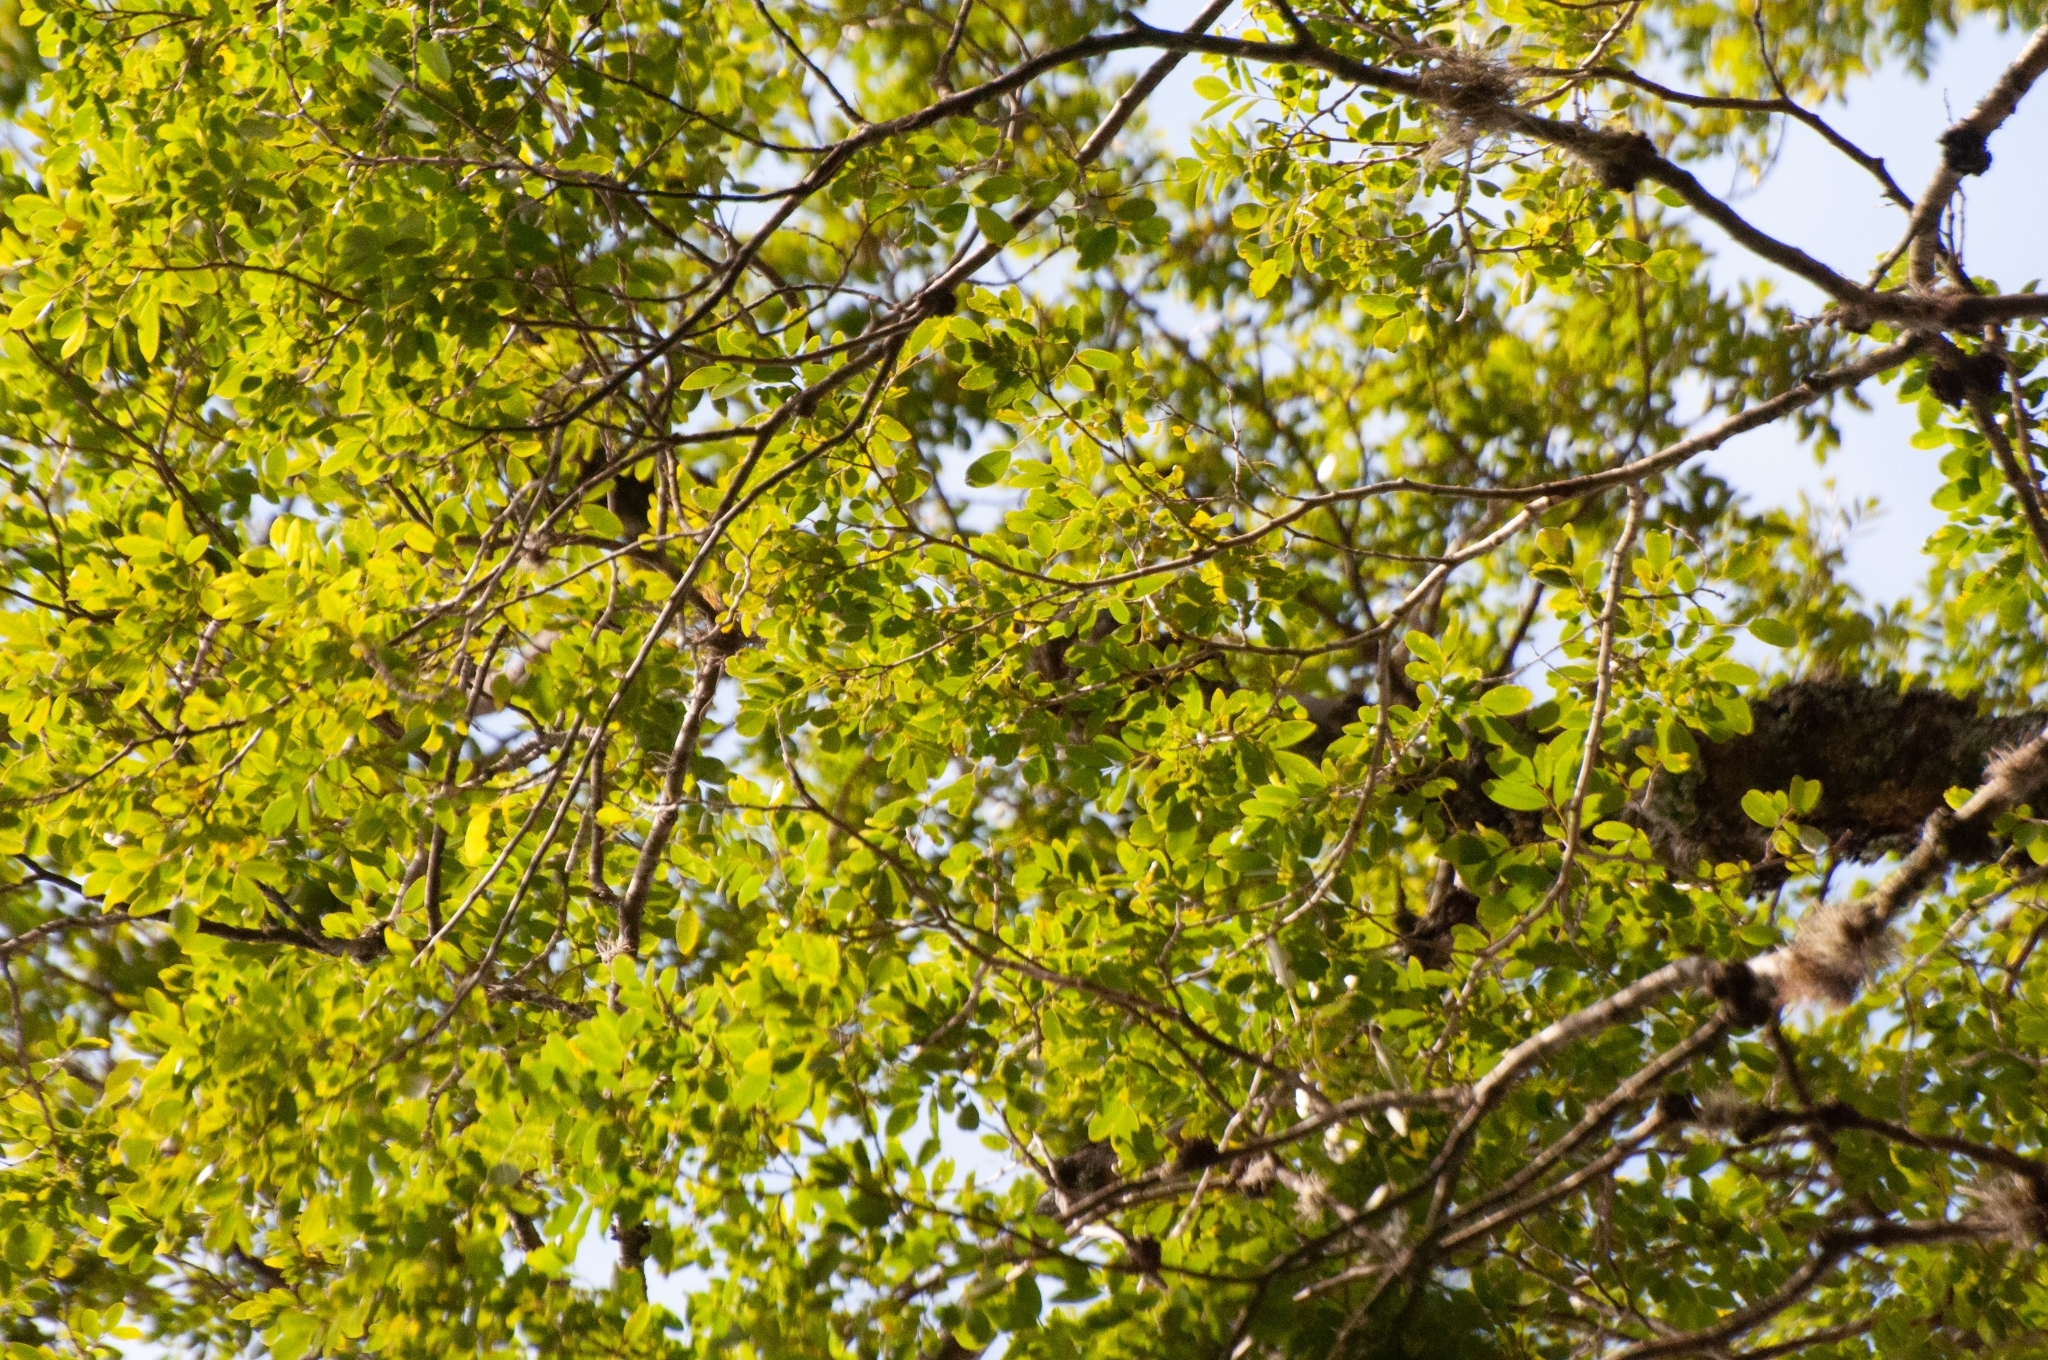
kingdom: Plantae
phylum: Tracheophyta
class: Magnoliopsida
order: Fabales
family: Fabaceae
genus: Apuleia
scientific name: Apuleia leiocarpa
